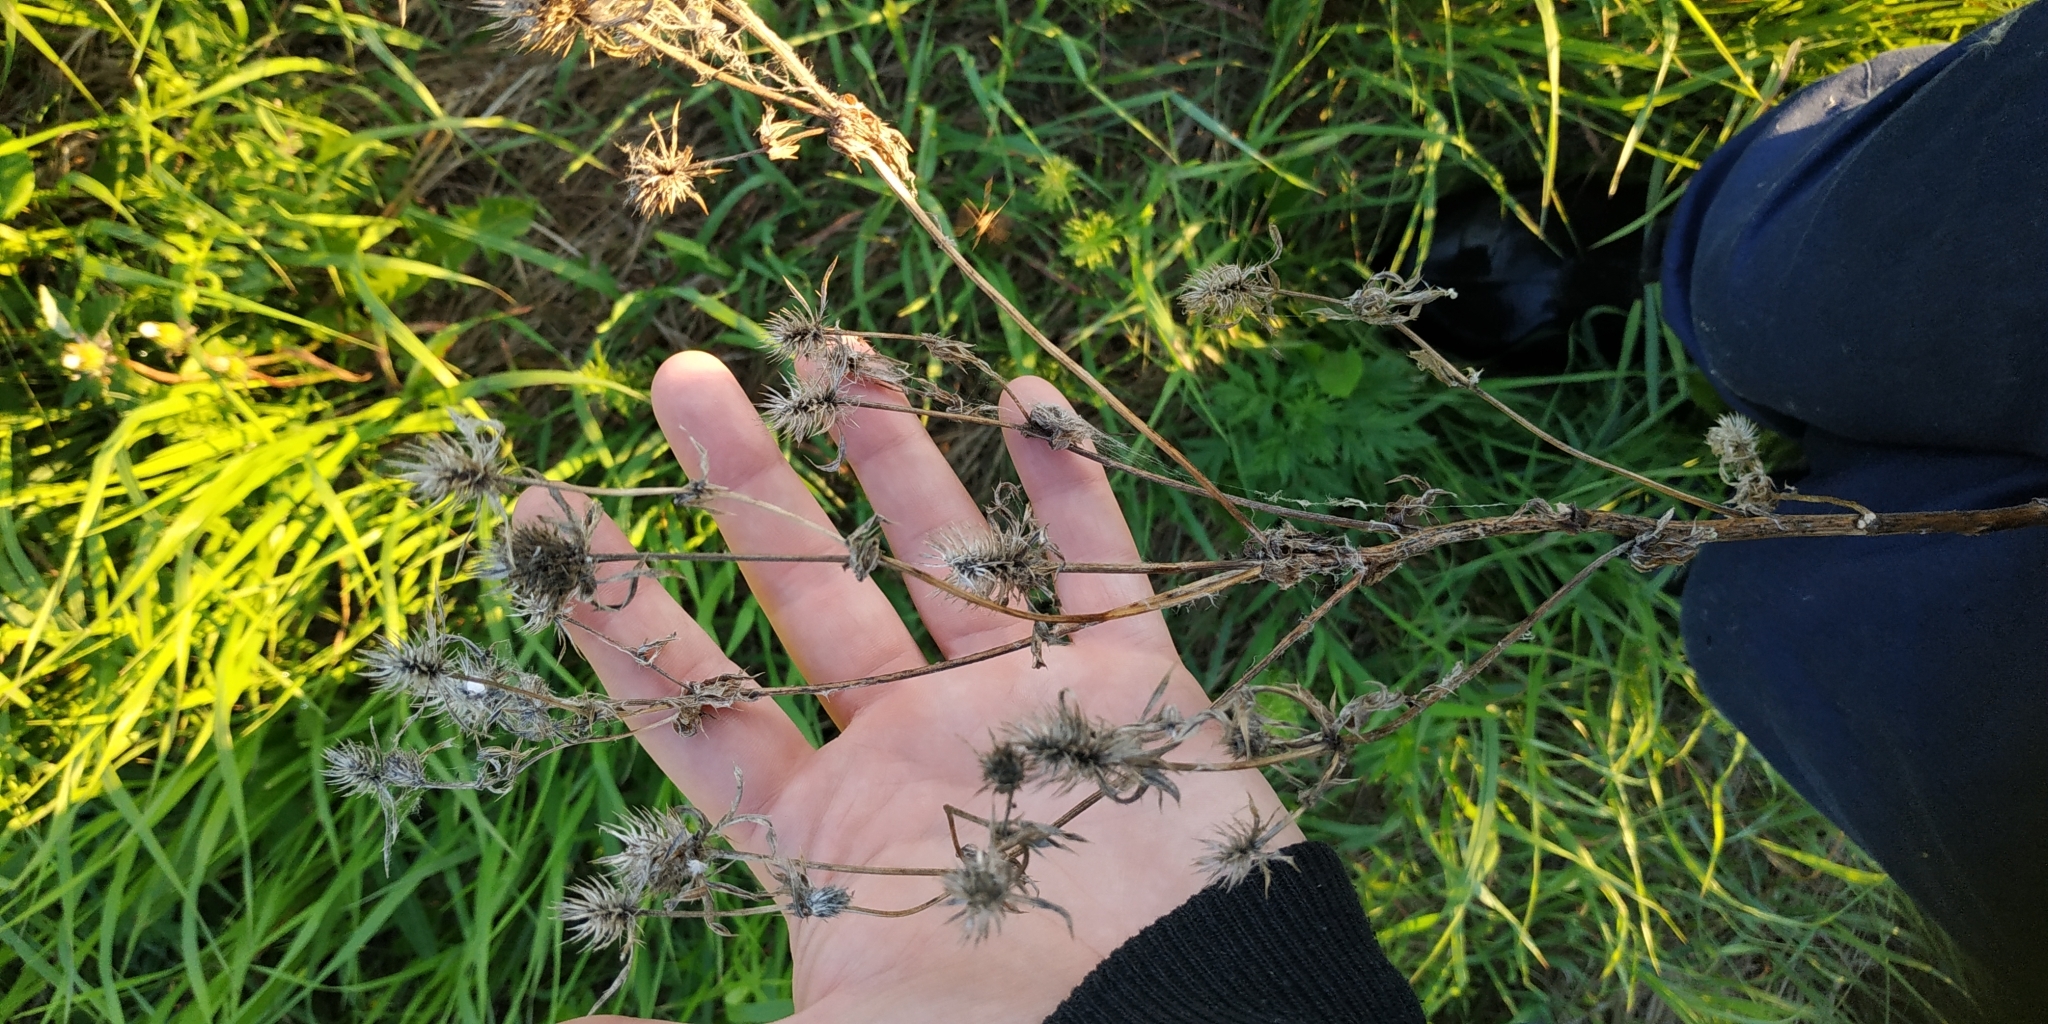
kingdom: Plantae
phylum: Tracheophyta
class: Magnoliopsida
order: Apiales
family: Apiaceae
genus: Eryngium
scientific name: Eryngium planum
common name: Blue eryngo
